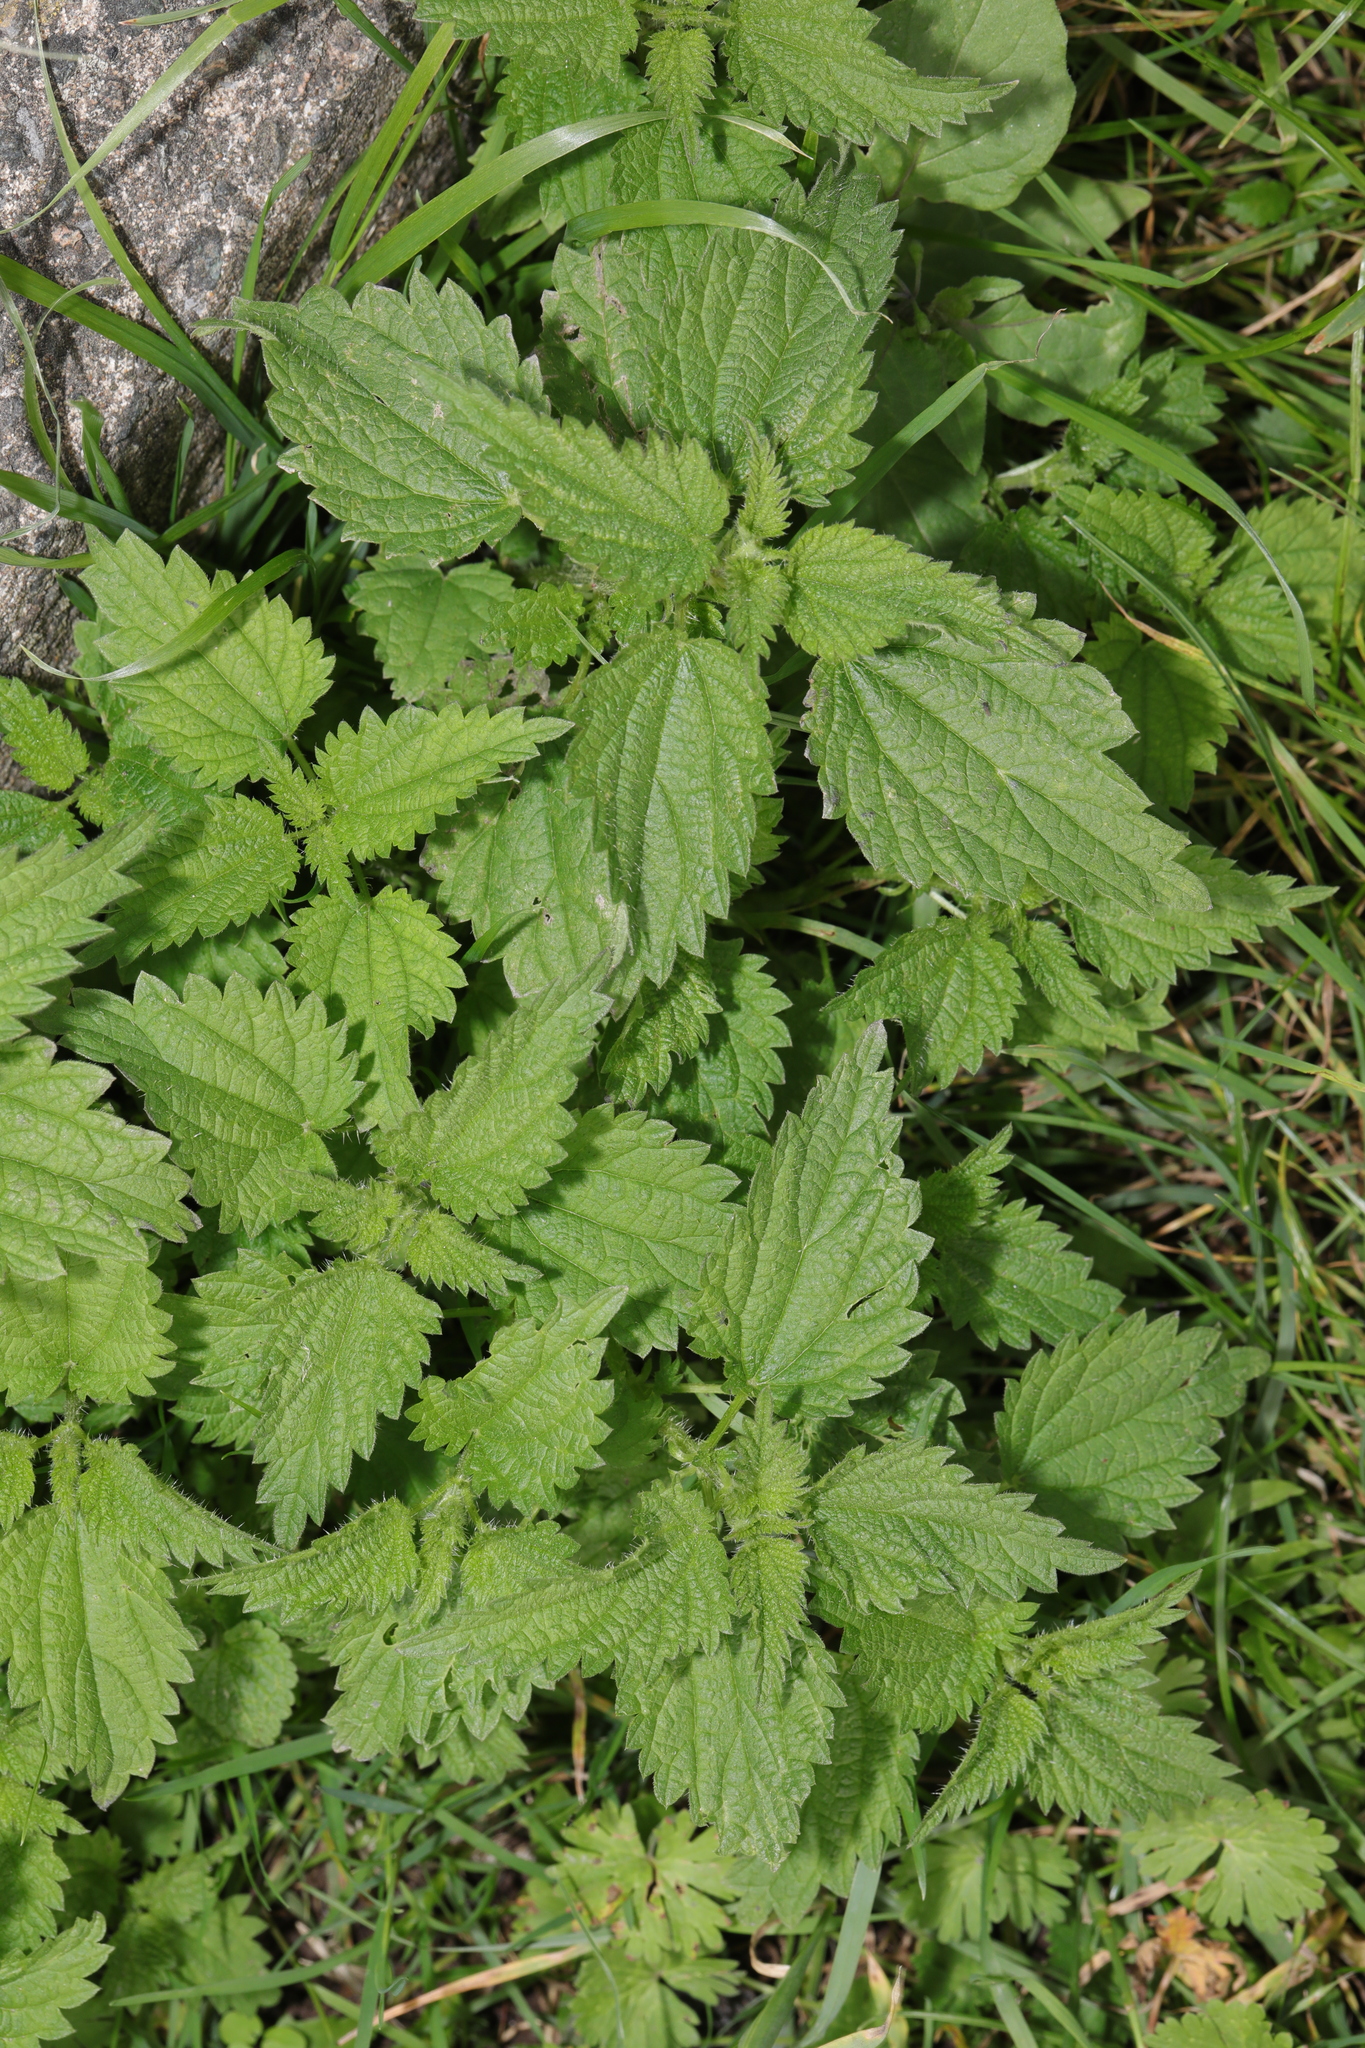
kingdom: Plantae
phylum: Tracheophyta
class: Magnoliopsida
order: Rosales
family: Urticaceae
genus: Urtica
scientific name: Urtica dioica
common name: Common nettle
